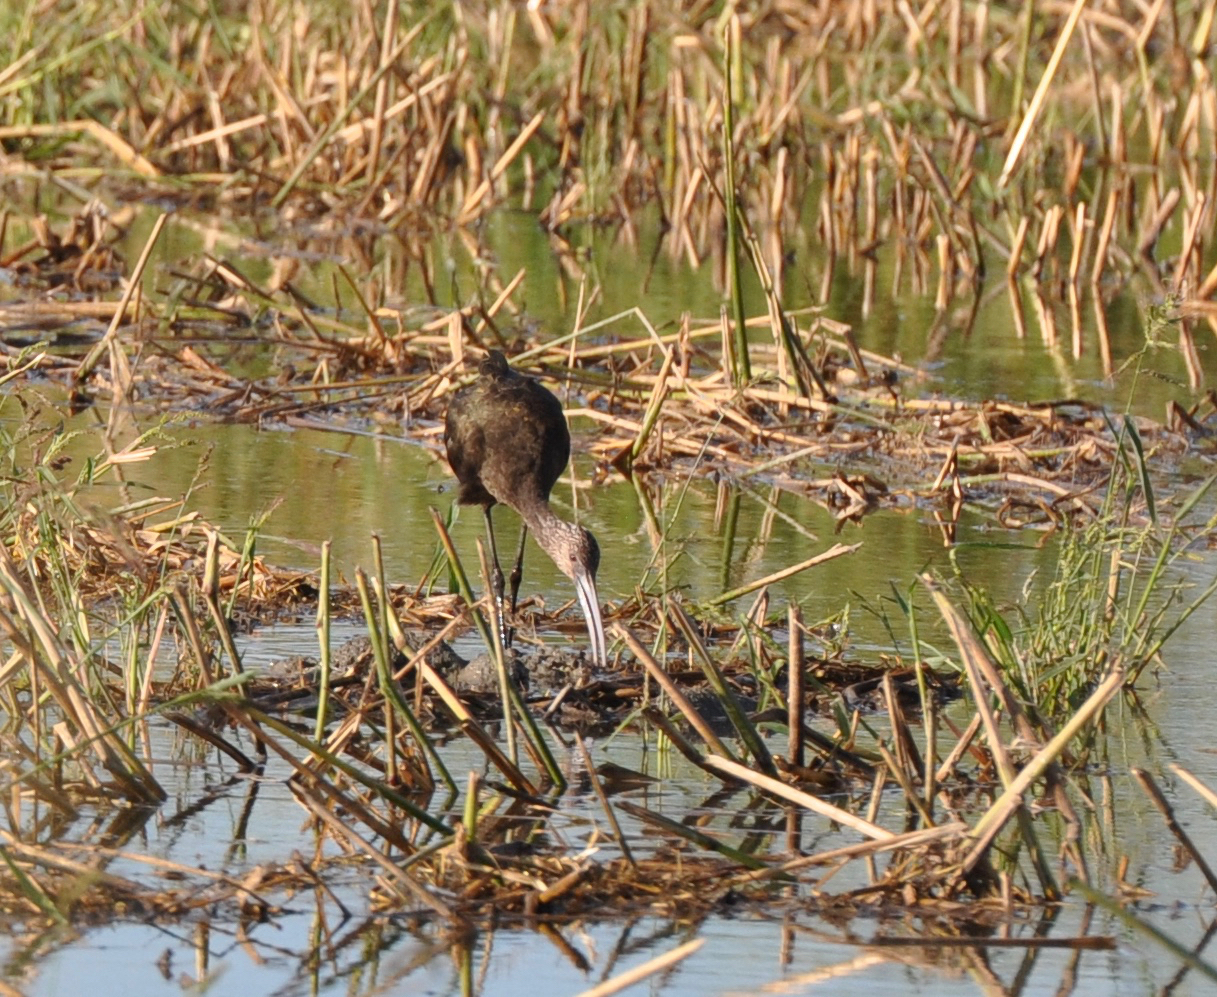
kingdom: Animalia
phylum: Chordata
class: Aves
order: Pelecaniformes
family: Threskiornithidae
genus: Plegadis
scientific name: Plegadis chihi
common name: White-faced ibis
